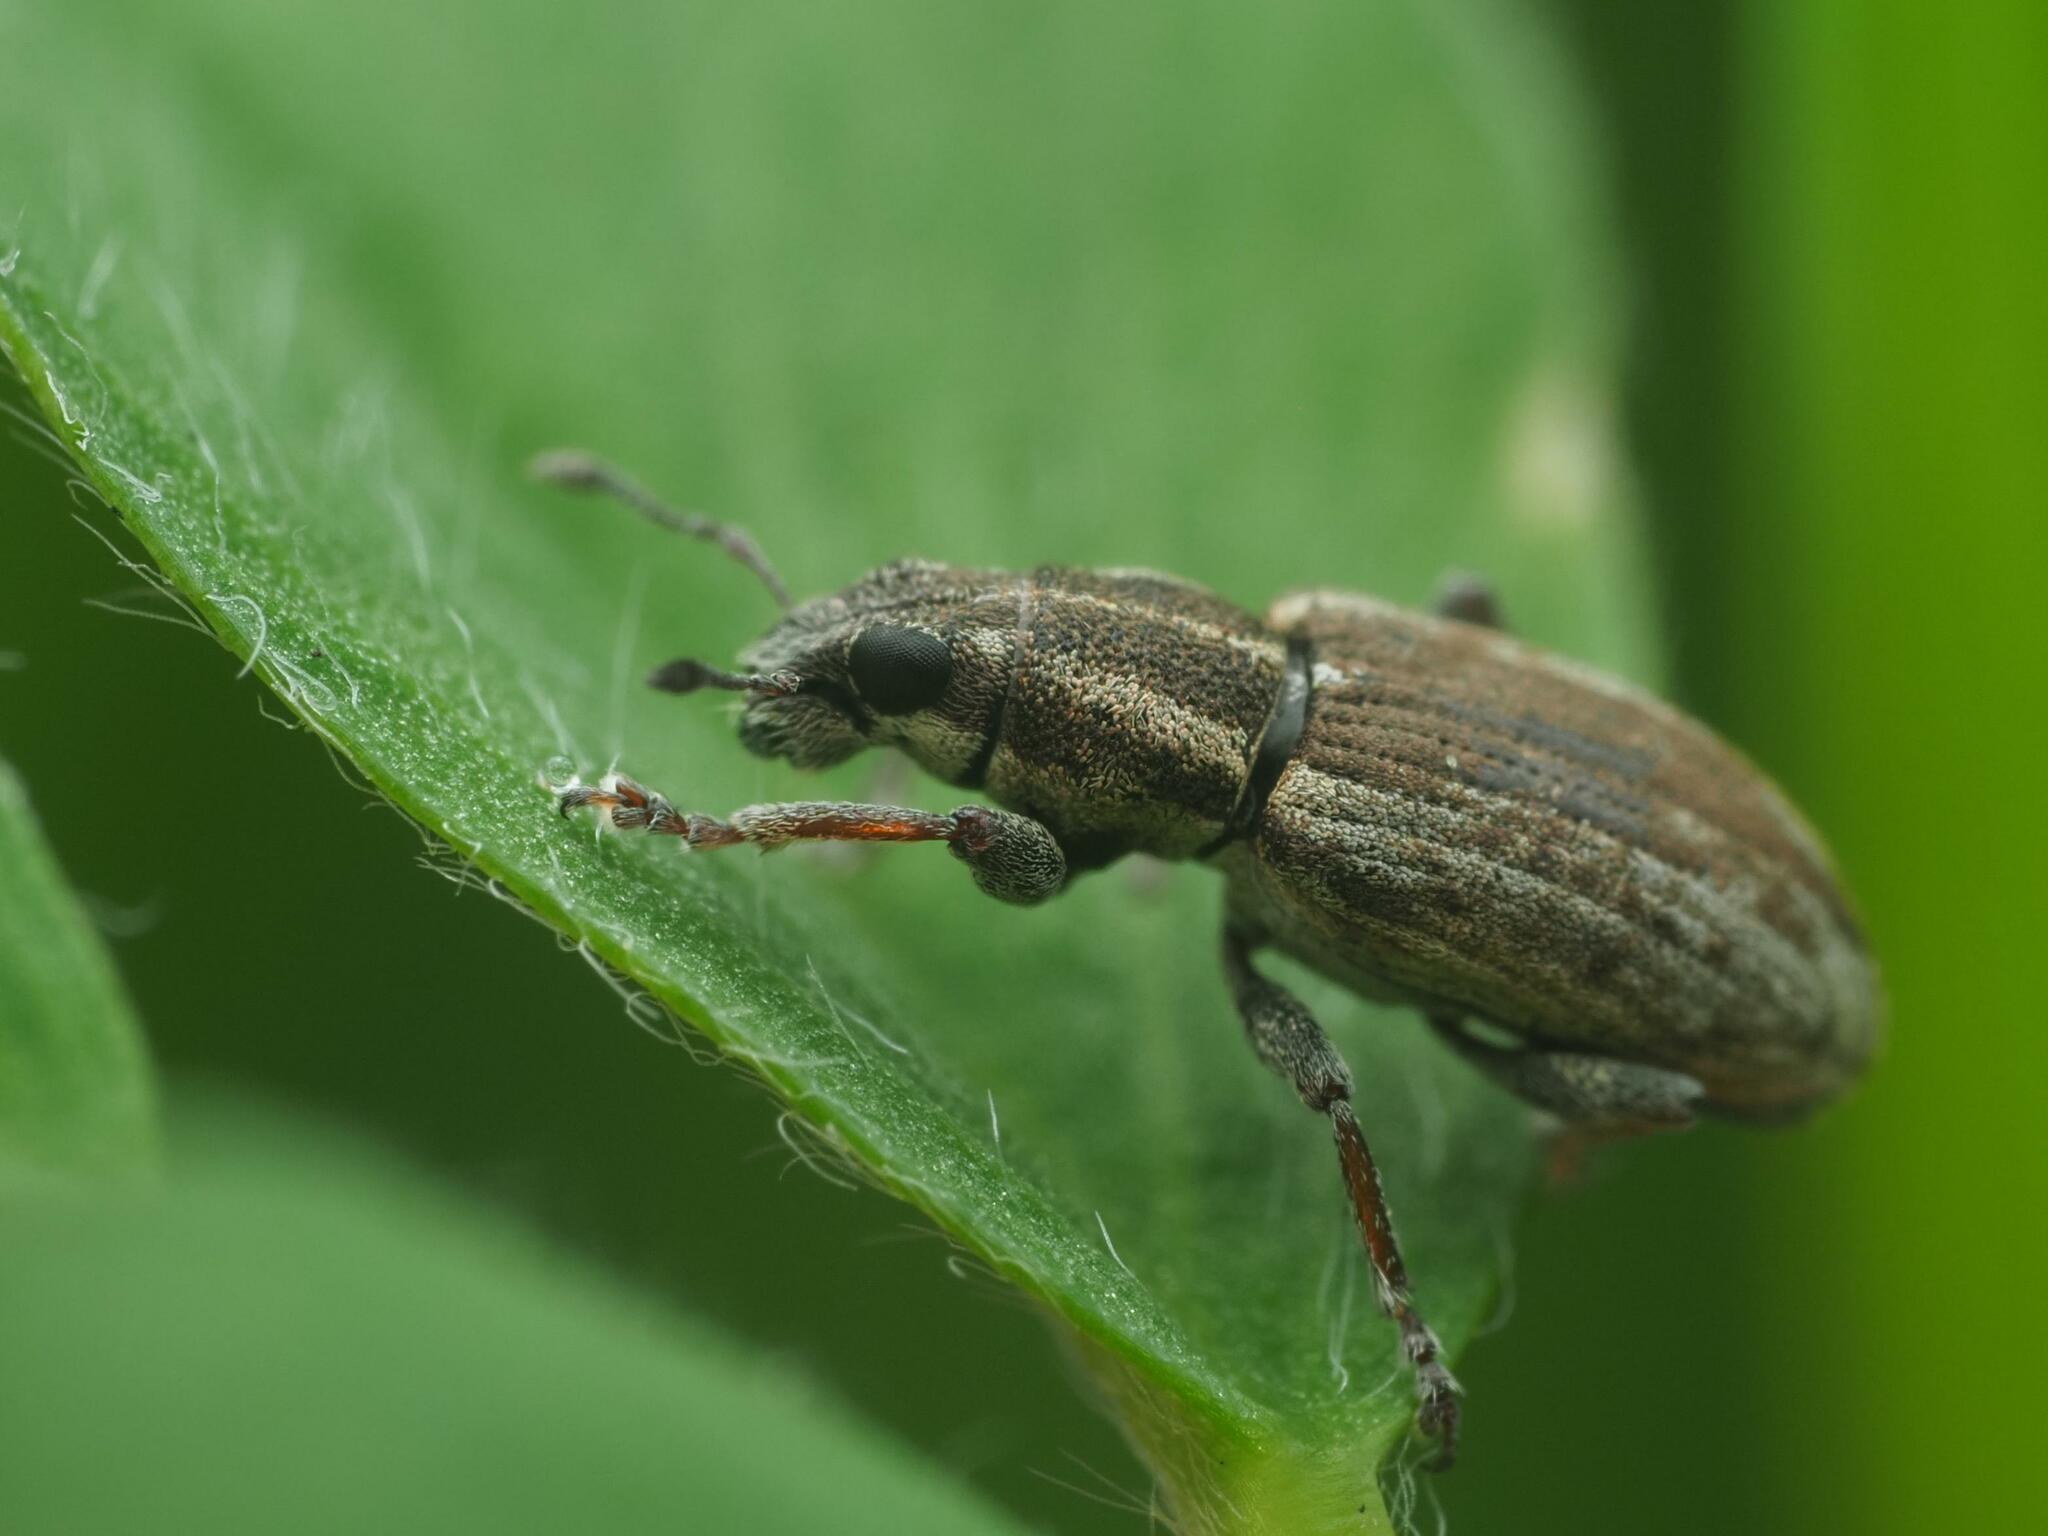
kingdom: Animalia
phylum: Arthropoda
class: Insecta
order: Coleoptera
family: Curculionidae
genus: Sitona
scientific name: Sitona humeralis
